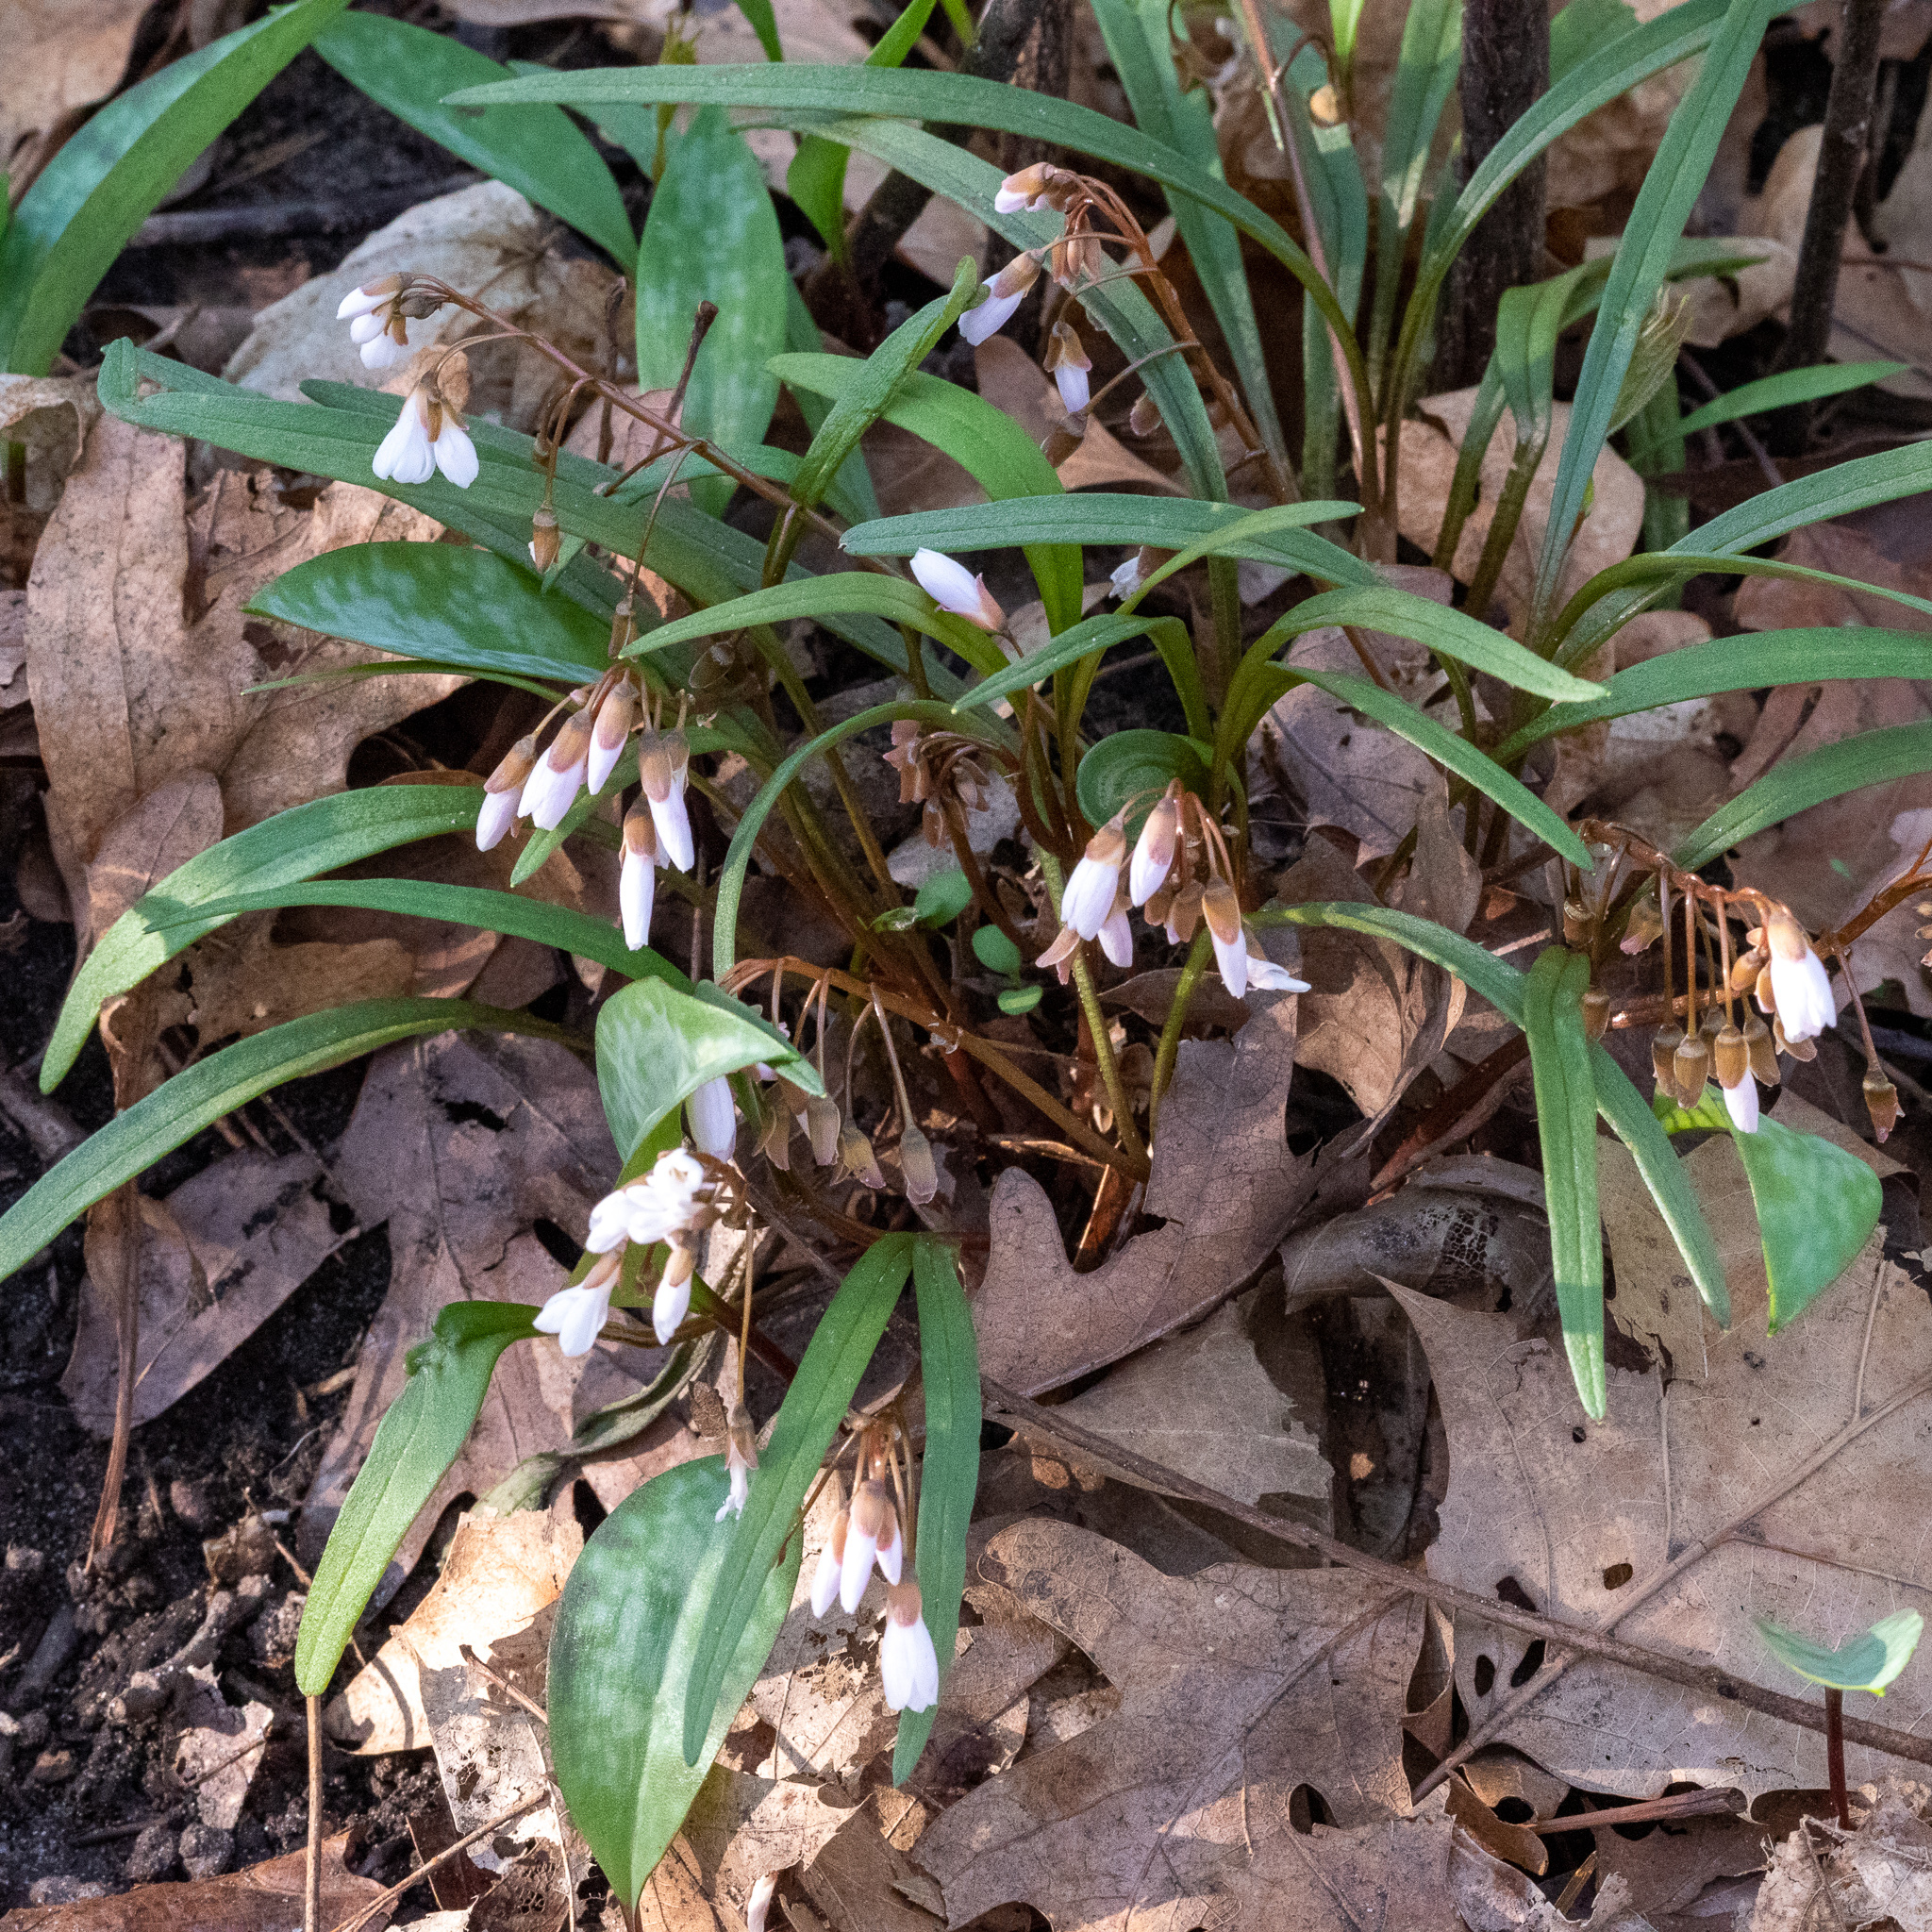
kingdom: Plantae
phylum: Tracheophyta
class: Magnoliopsida
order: Caryophyllales
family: Montiaceae
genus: Claytonia
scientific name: Claytonia virginica
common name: Virginia springbeauty
